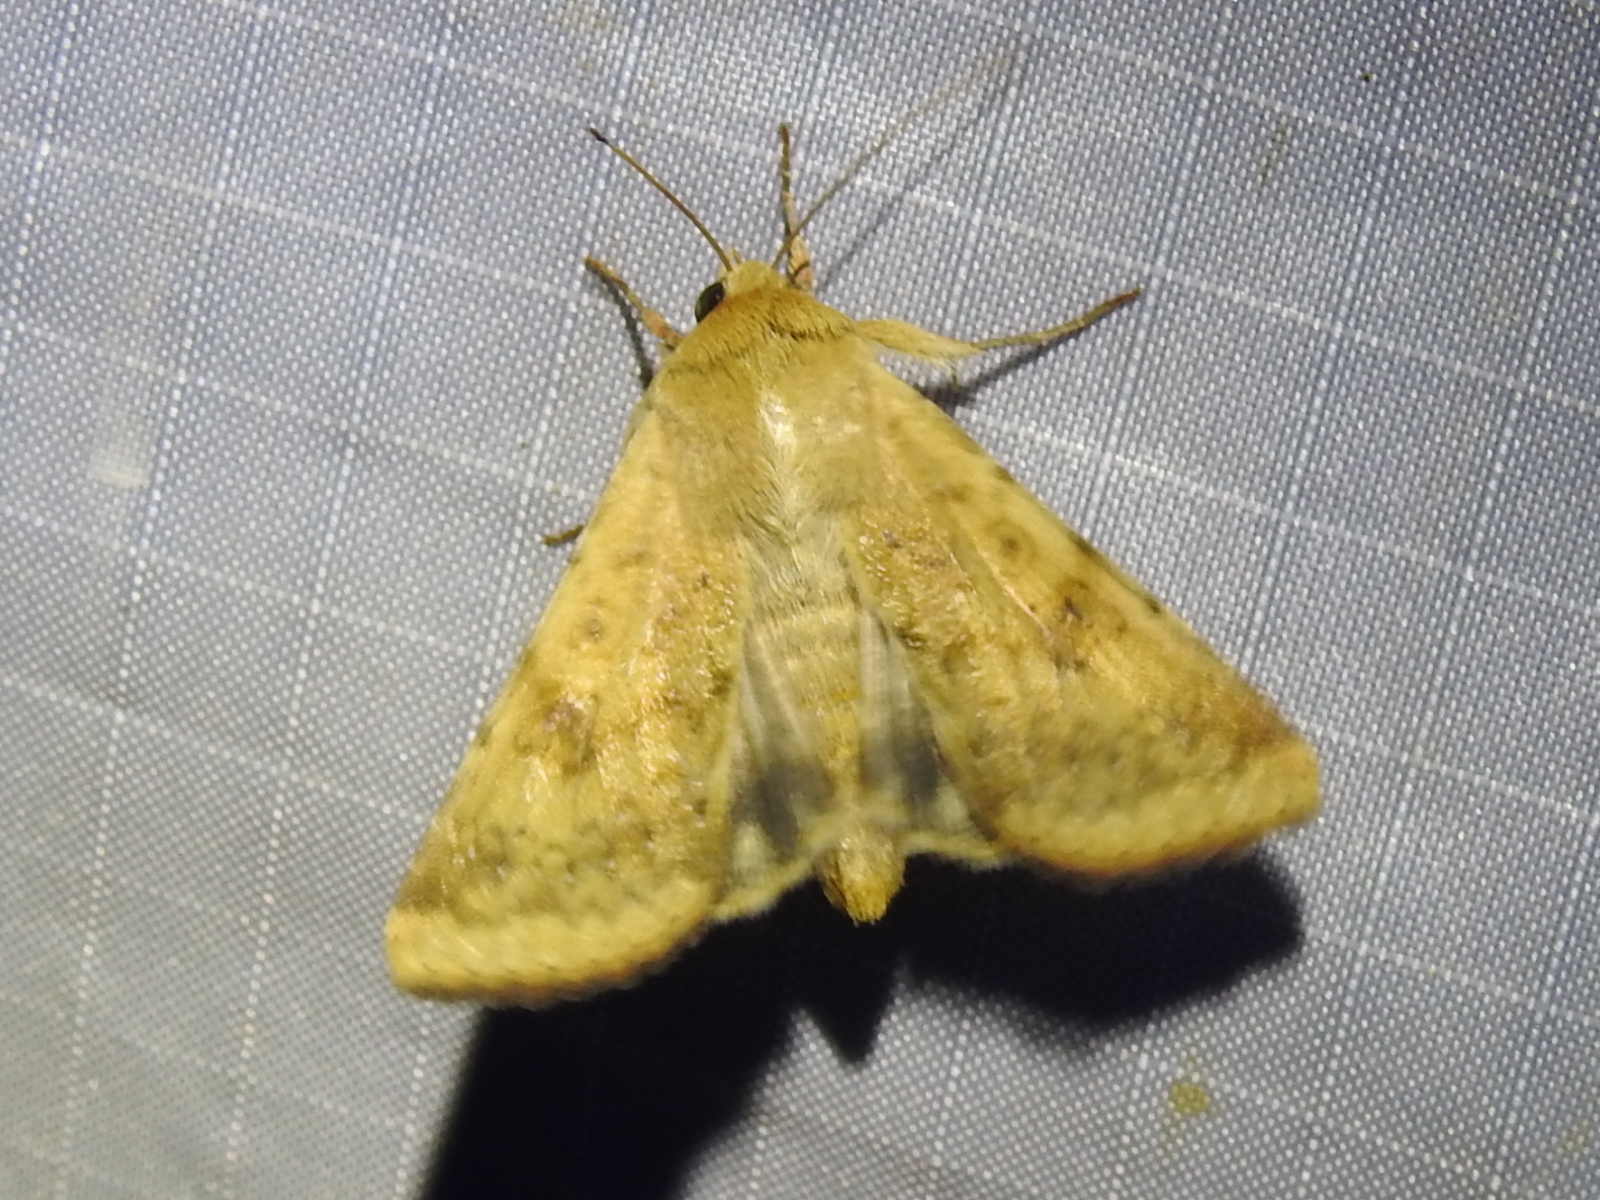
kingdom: Animalia
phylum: Arthropoda
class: Insecta
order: Lepidoptera
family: Noctuidae
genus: Helicoverpa
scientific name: Helicoverpa zea
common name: Bollworm
